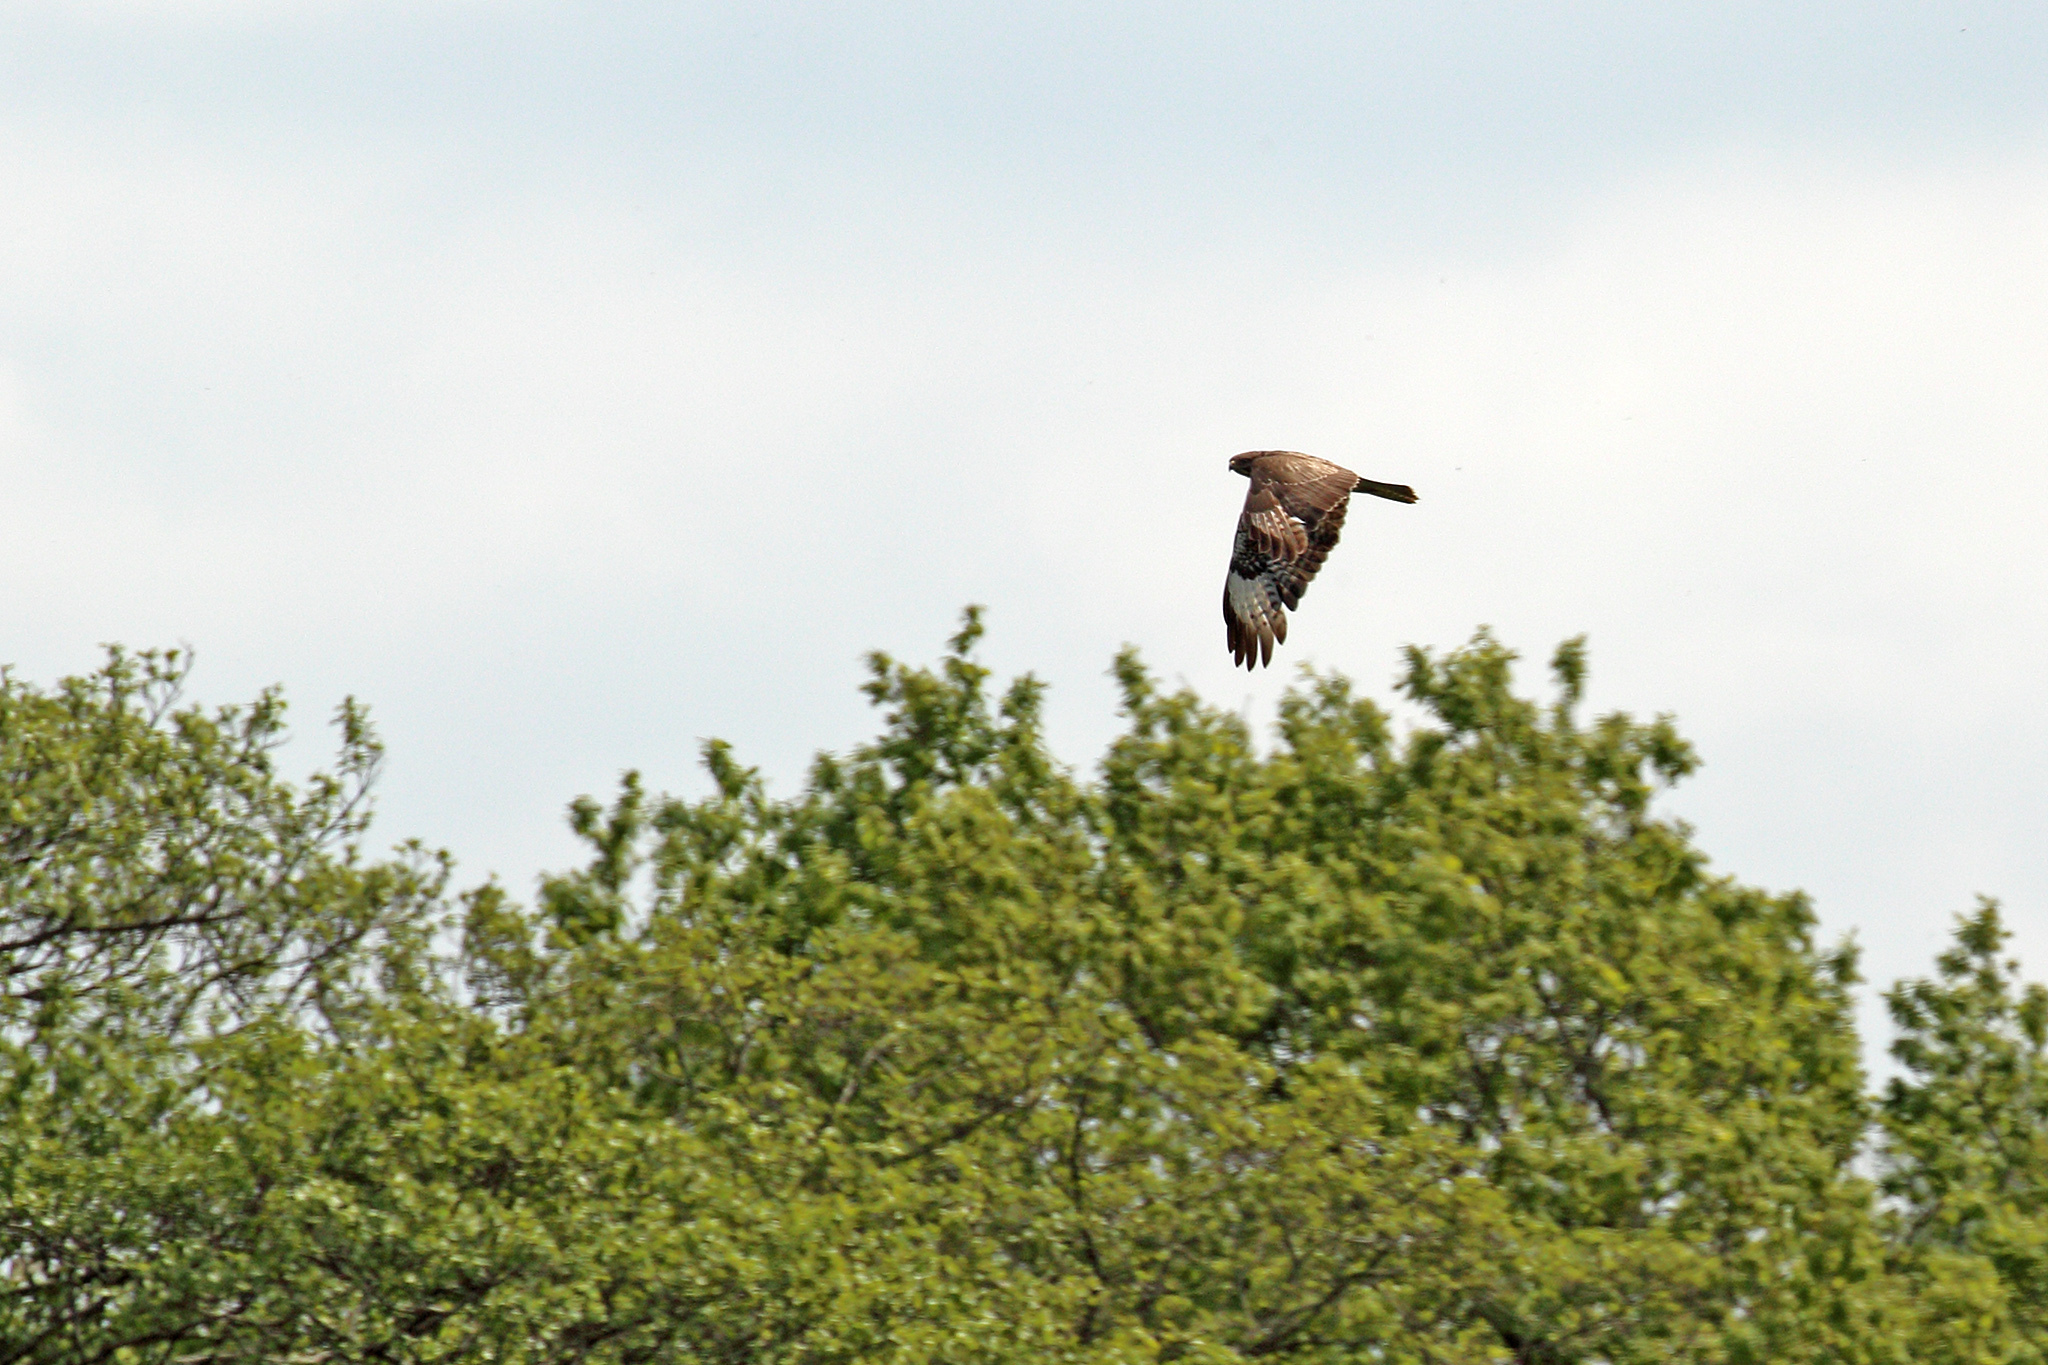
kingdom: Animalia
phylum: Chordata
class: Aves
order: Accipitriformes
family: Accipitridae
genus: Buteo
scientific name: Buteo buteo
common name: Common buzzard
